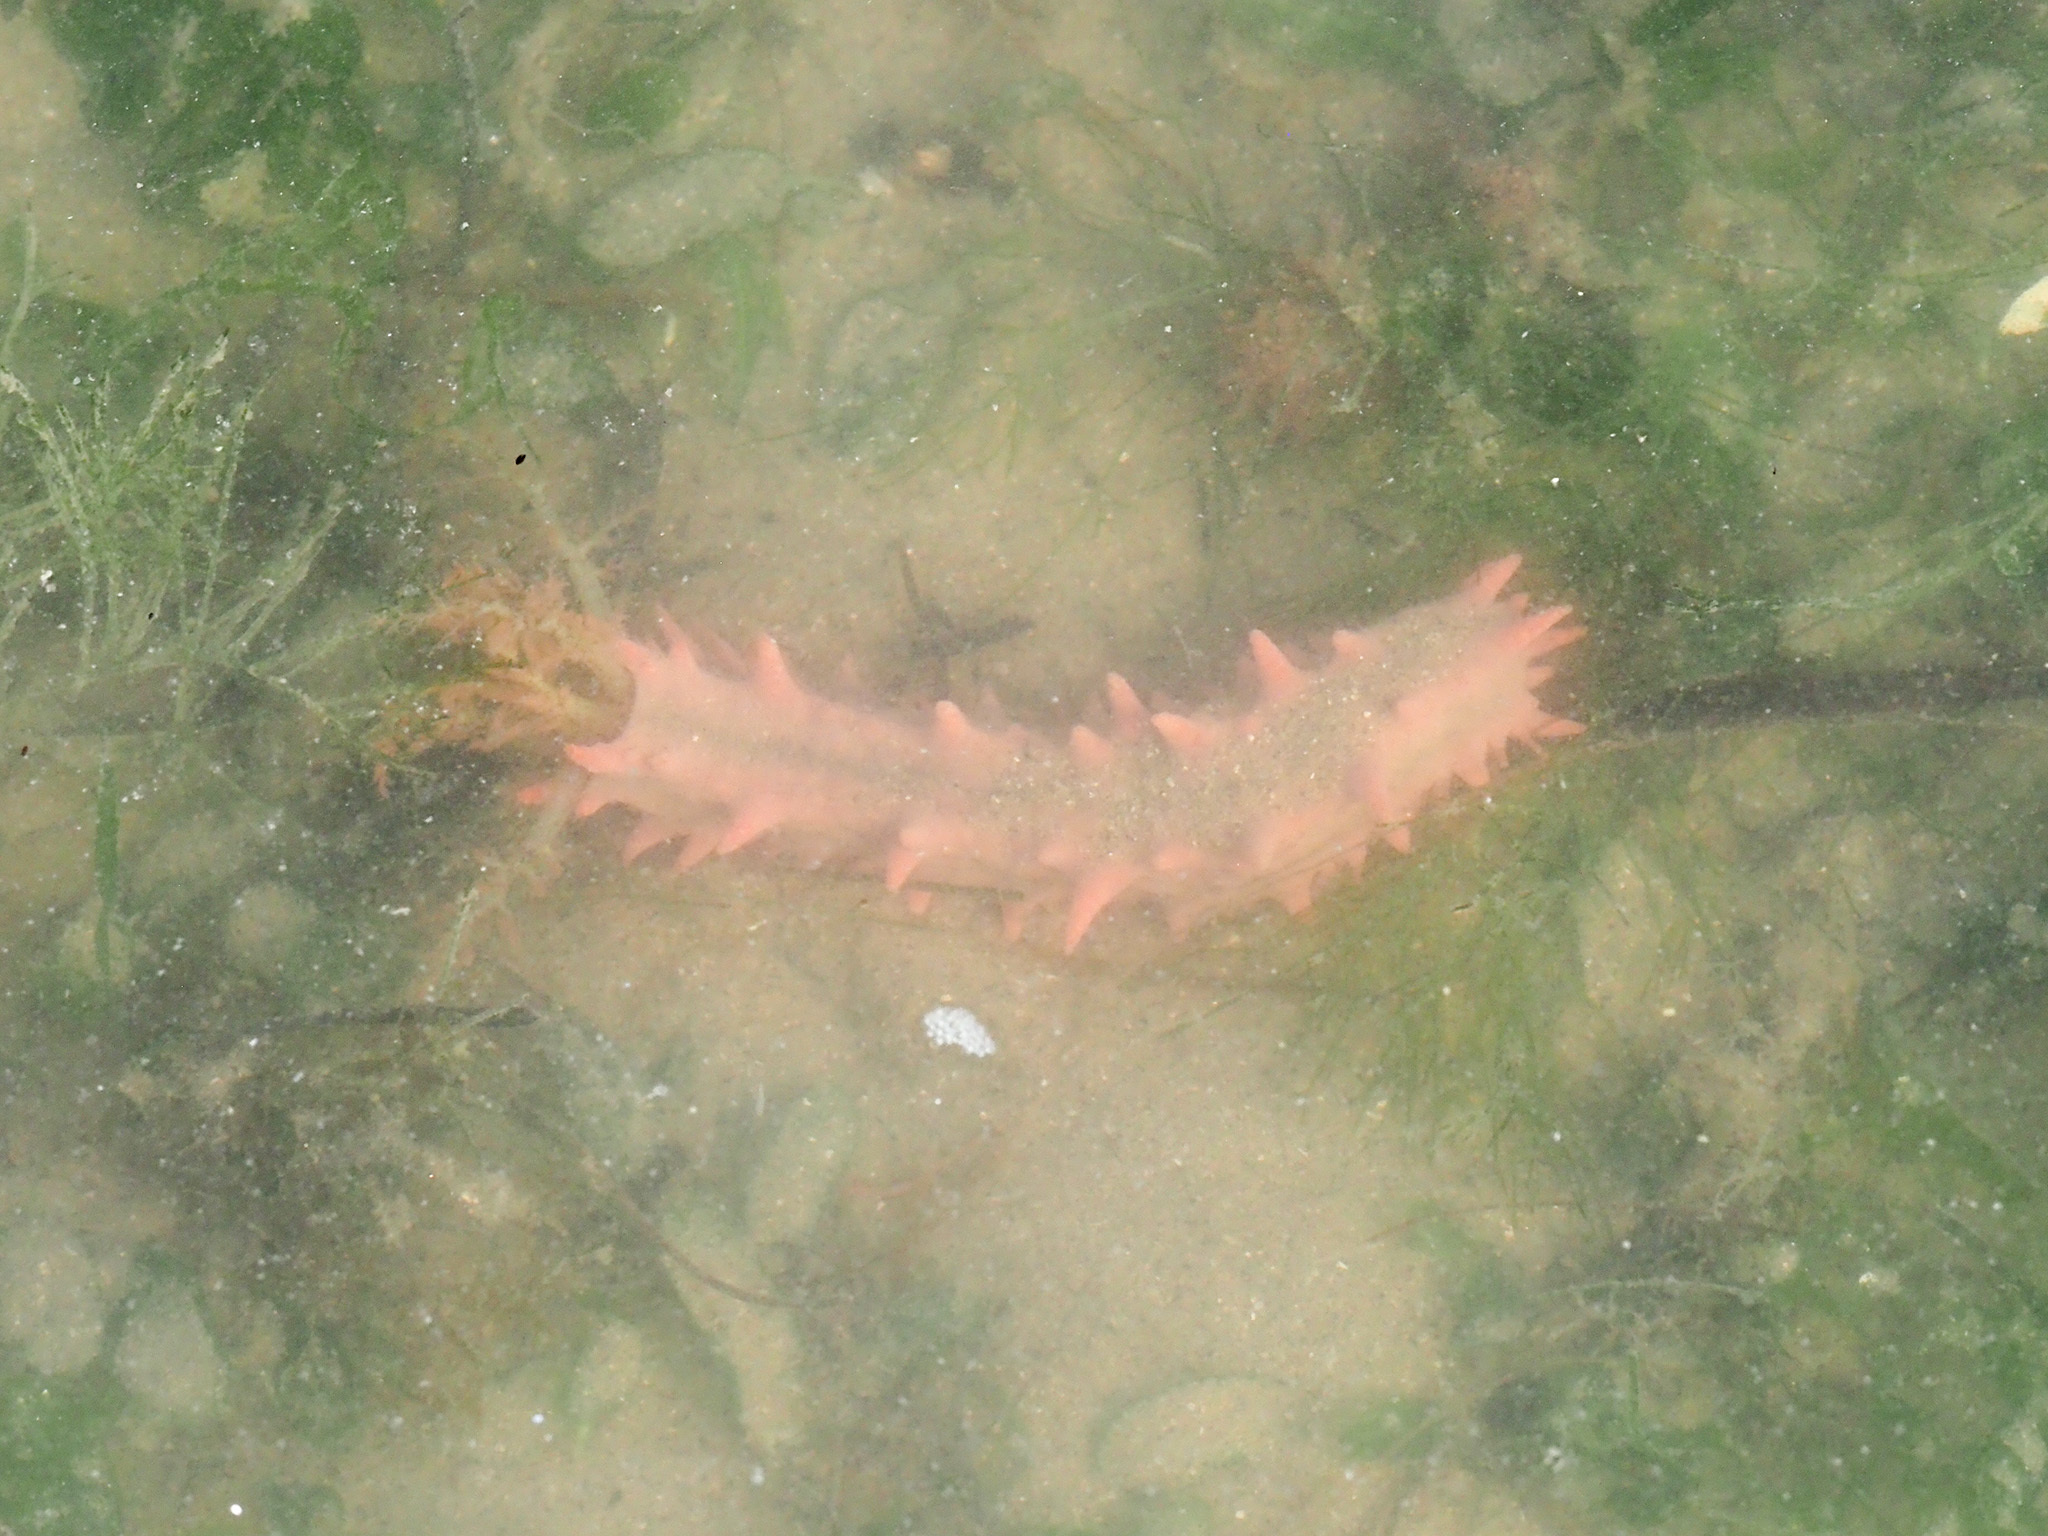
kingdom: Animalia
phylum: Echinodermata
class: Holothuroidea
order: Dendrochirotida
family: Cucumariidae
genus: Colochirus
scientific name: Colochirus quadrangularis
